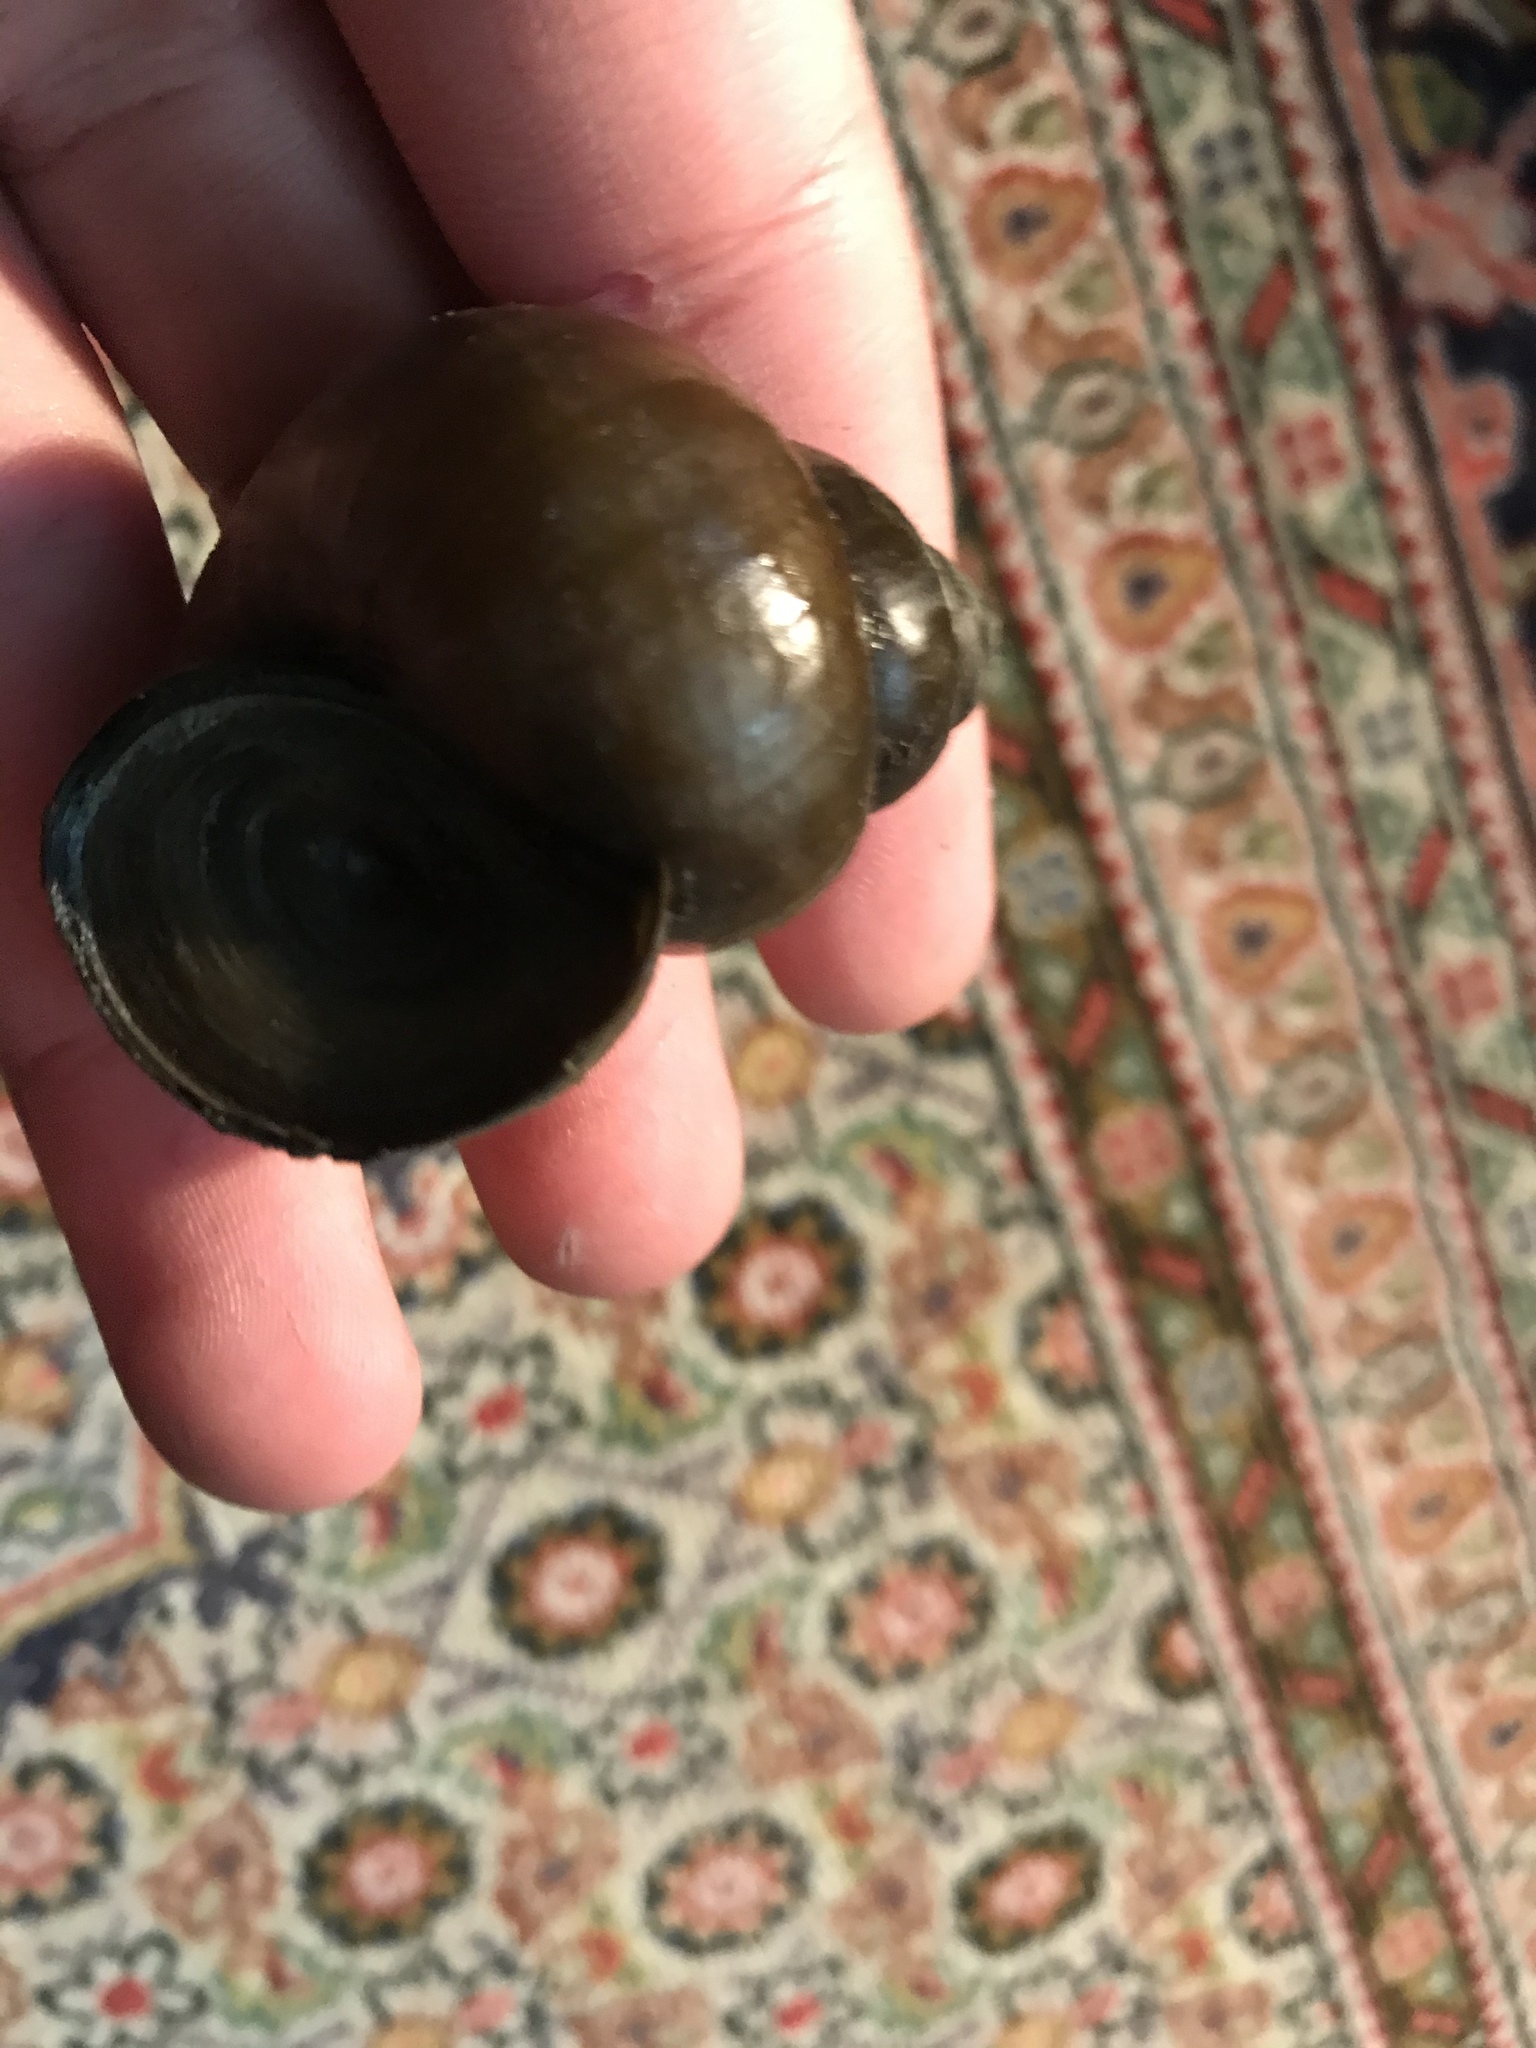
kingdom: Animalia
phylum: Mollusca
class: Gastropoda
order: Architaenioglossa
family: Viviparidae
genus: Cipangopaludina
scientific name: Cipangopaludina chinensis
